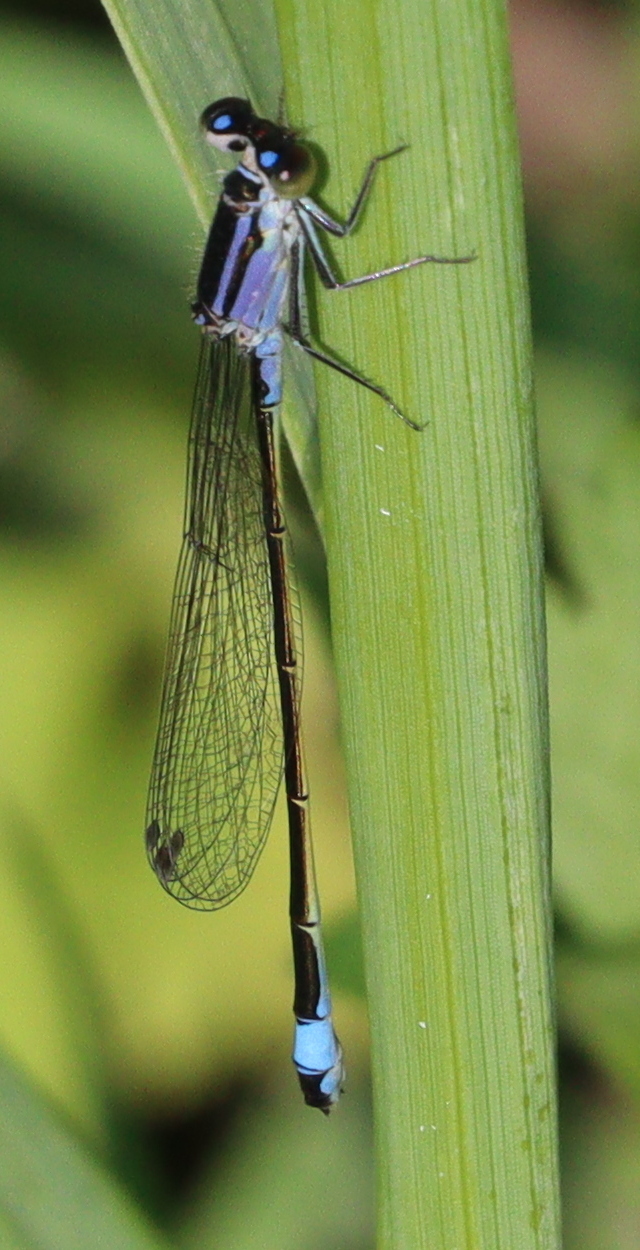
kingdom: Animalia
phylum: Arthropoda
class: Insecta
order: Odonata
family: Coenagrionidae
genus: Ischnura
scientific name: Ischnura elegans
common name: Blue-tailed damselfly
